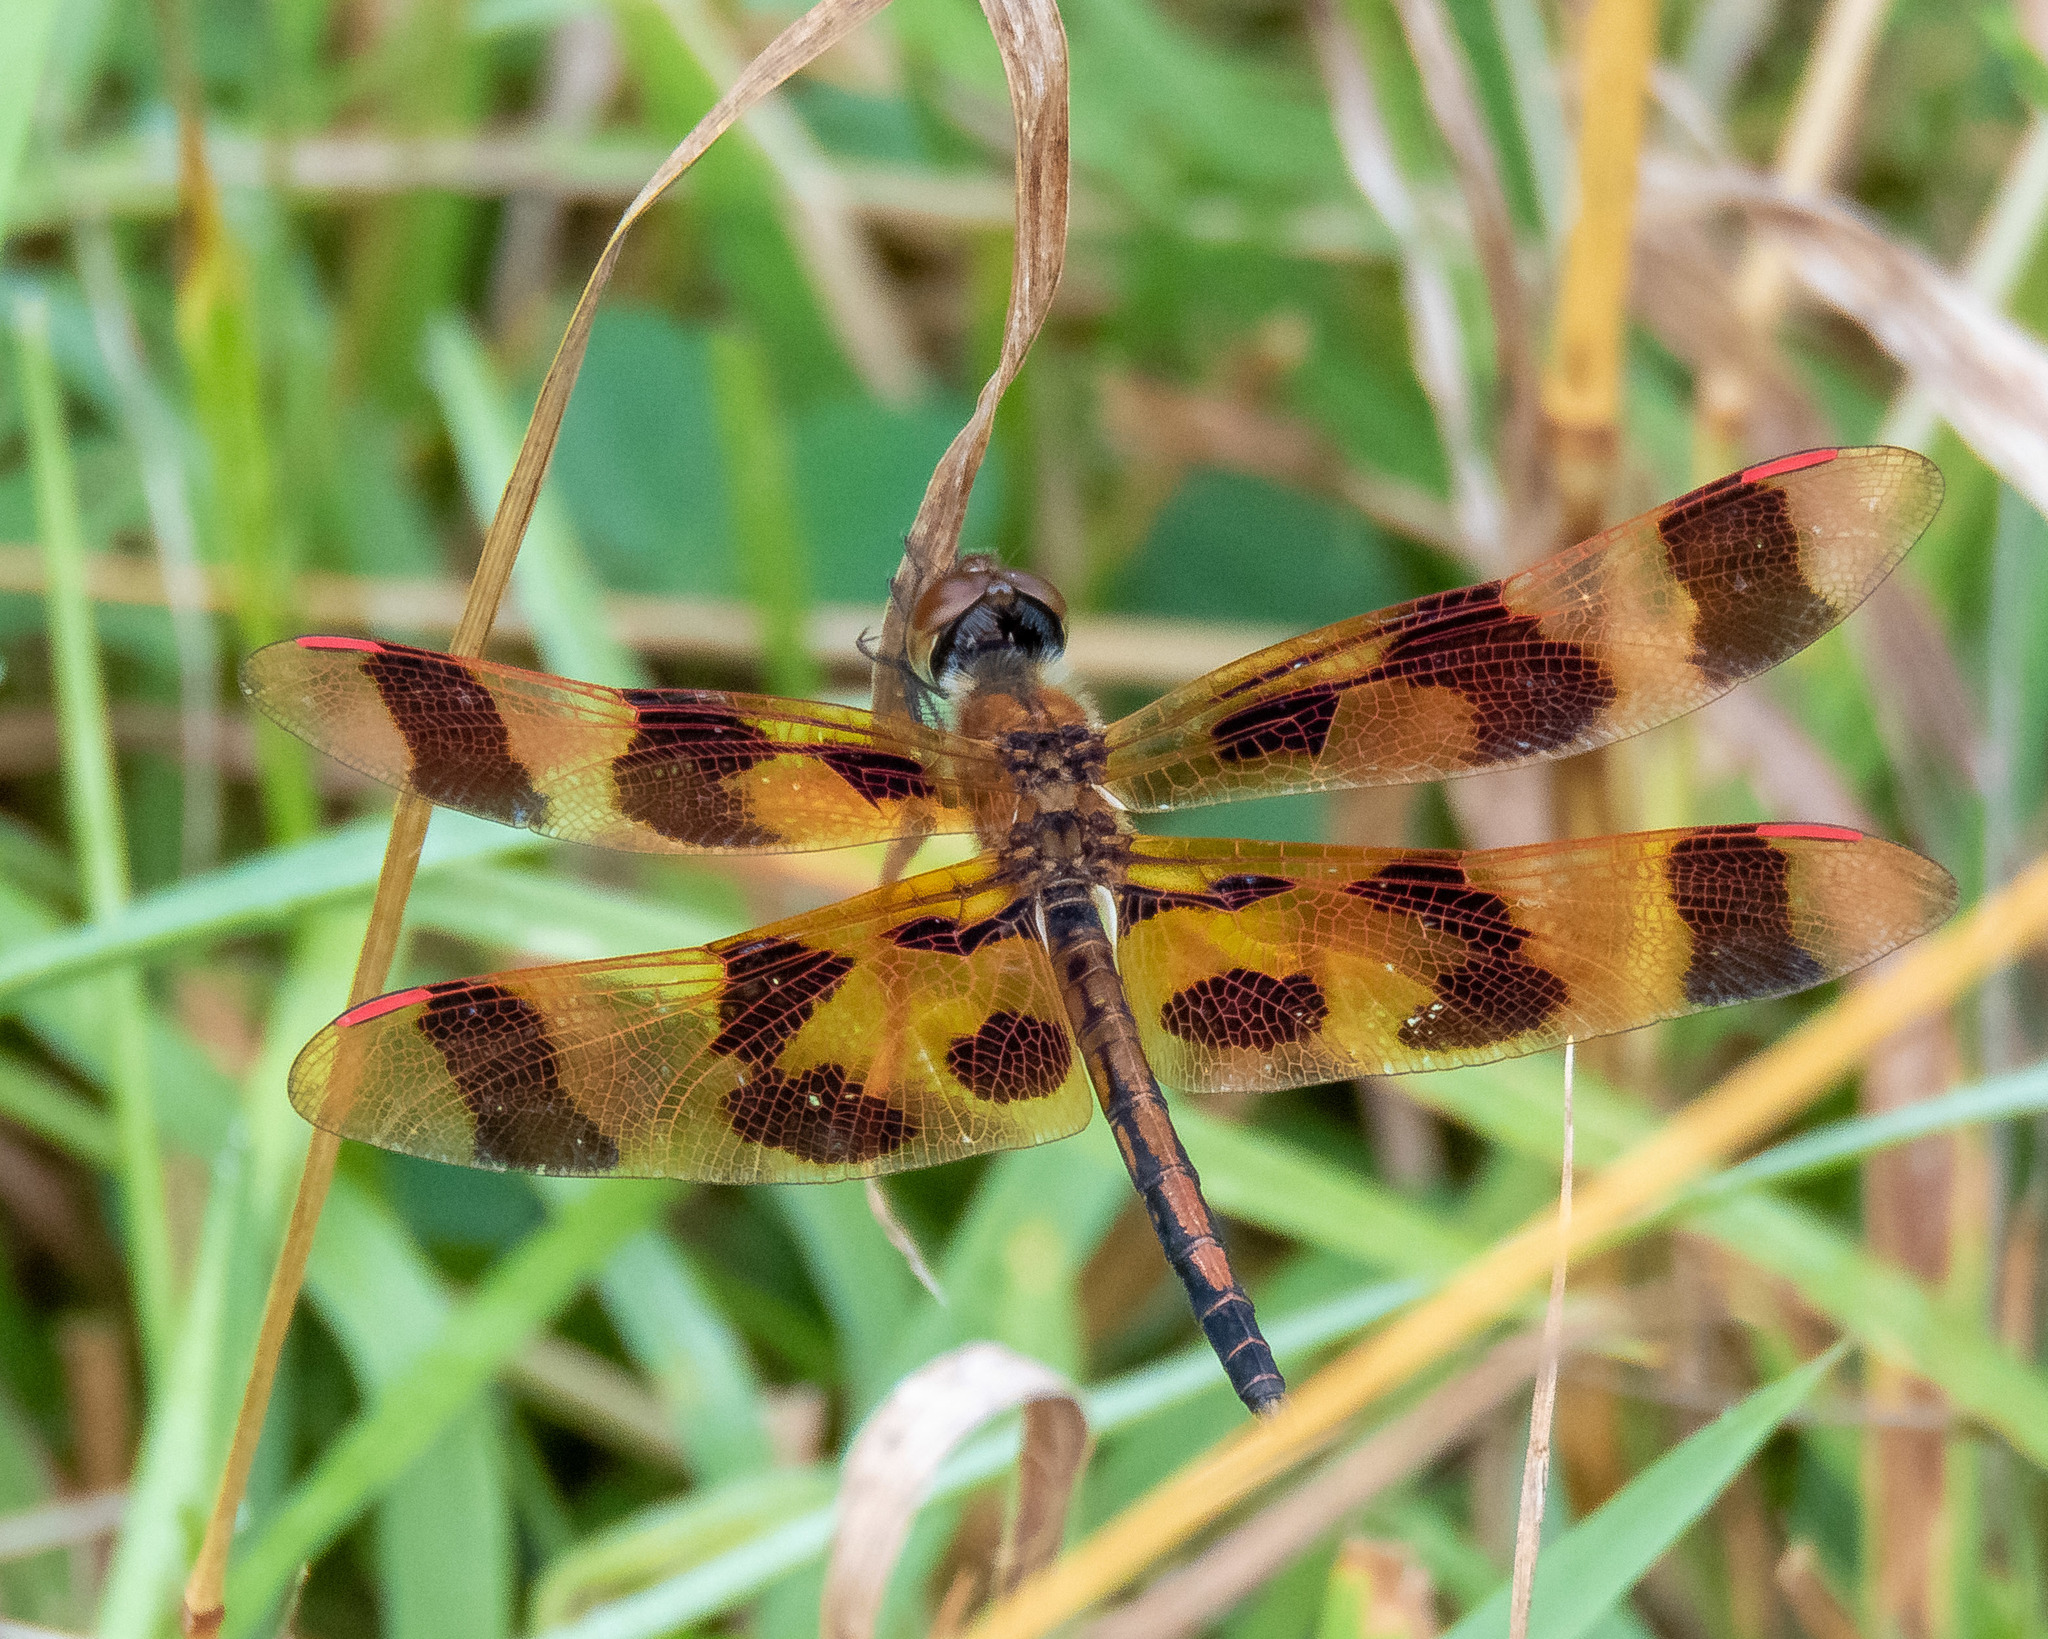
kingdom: Animalia
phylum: Arthropoda
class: Insecta
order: Odonata
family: Libellulidae
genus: Celithemis
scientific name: Celithemis eponina
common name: Halloween pennant
